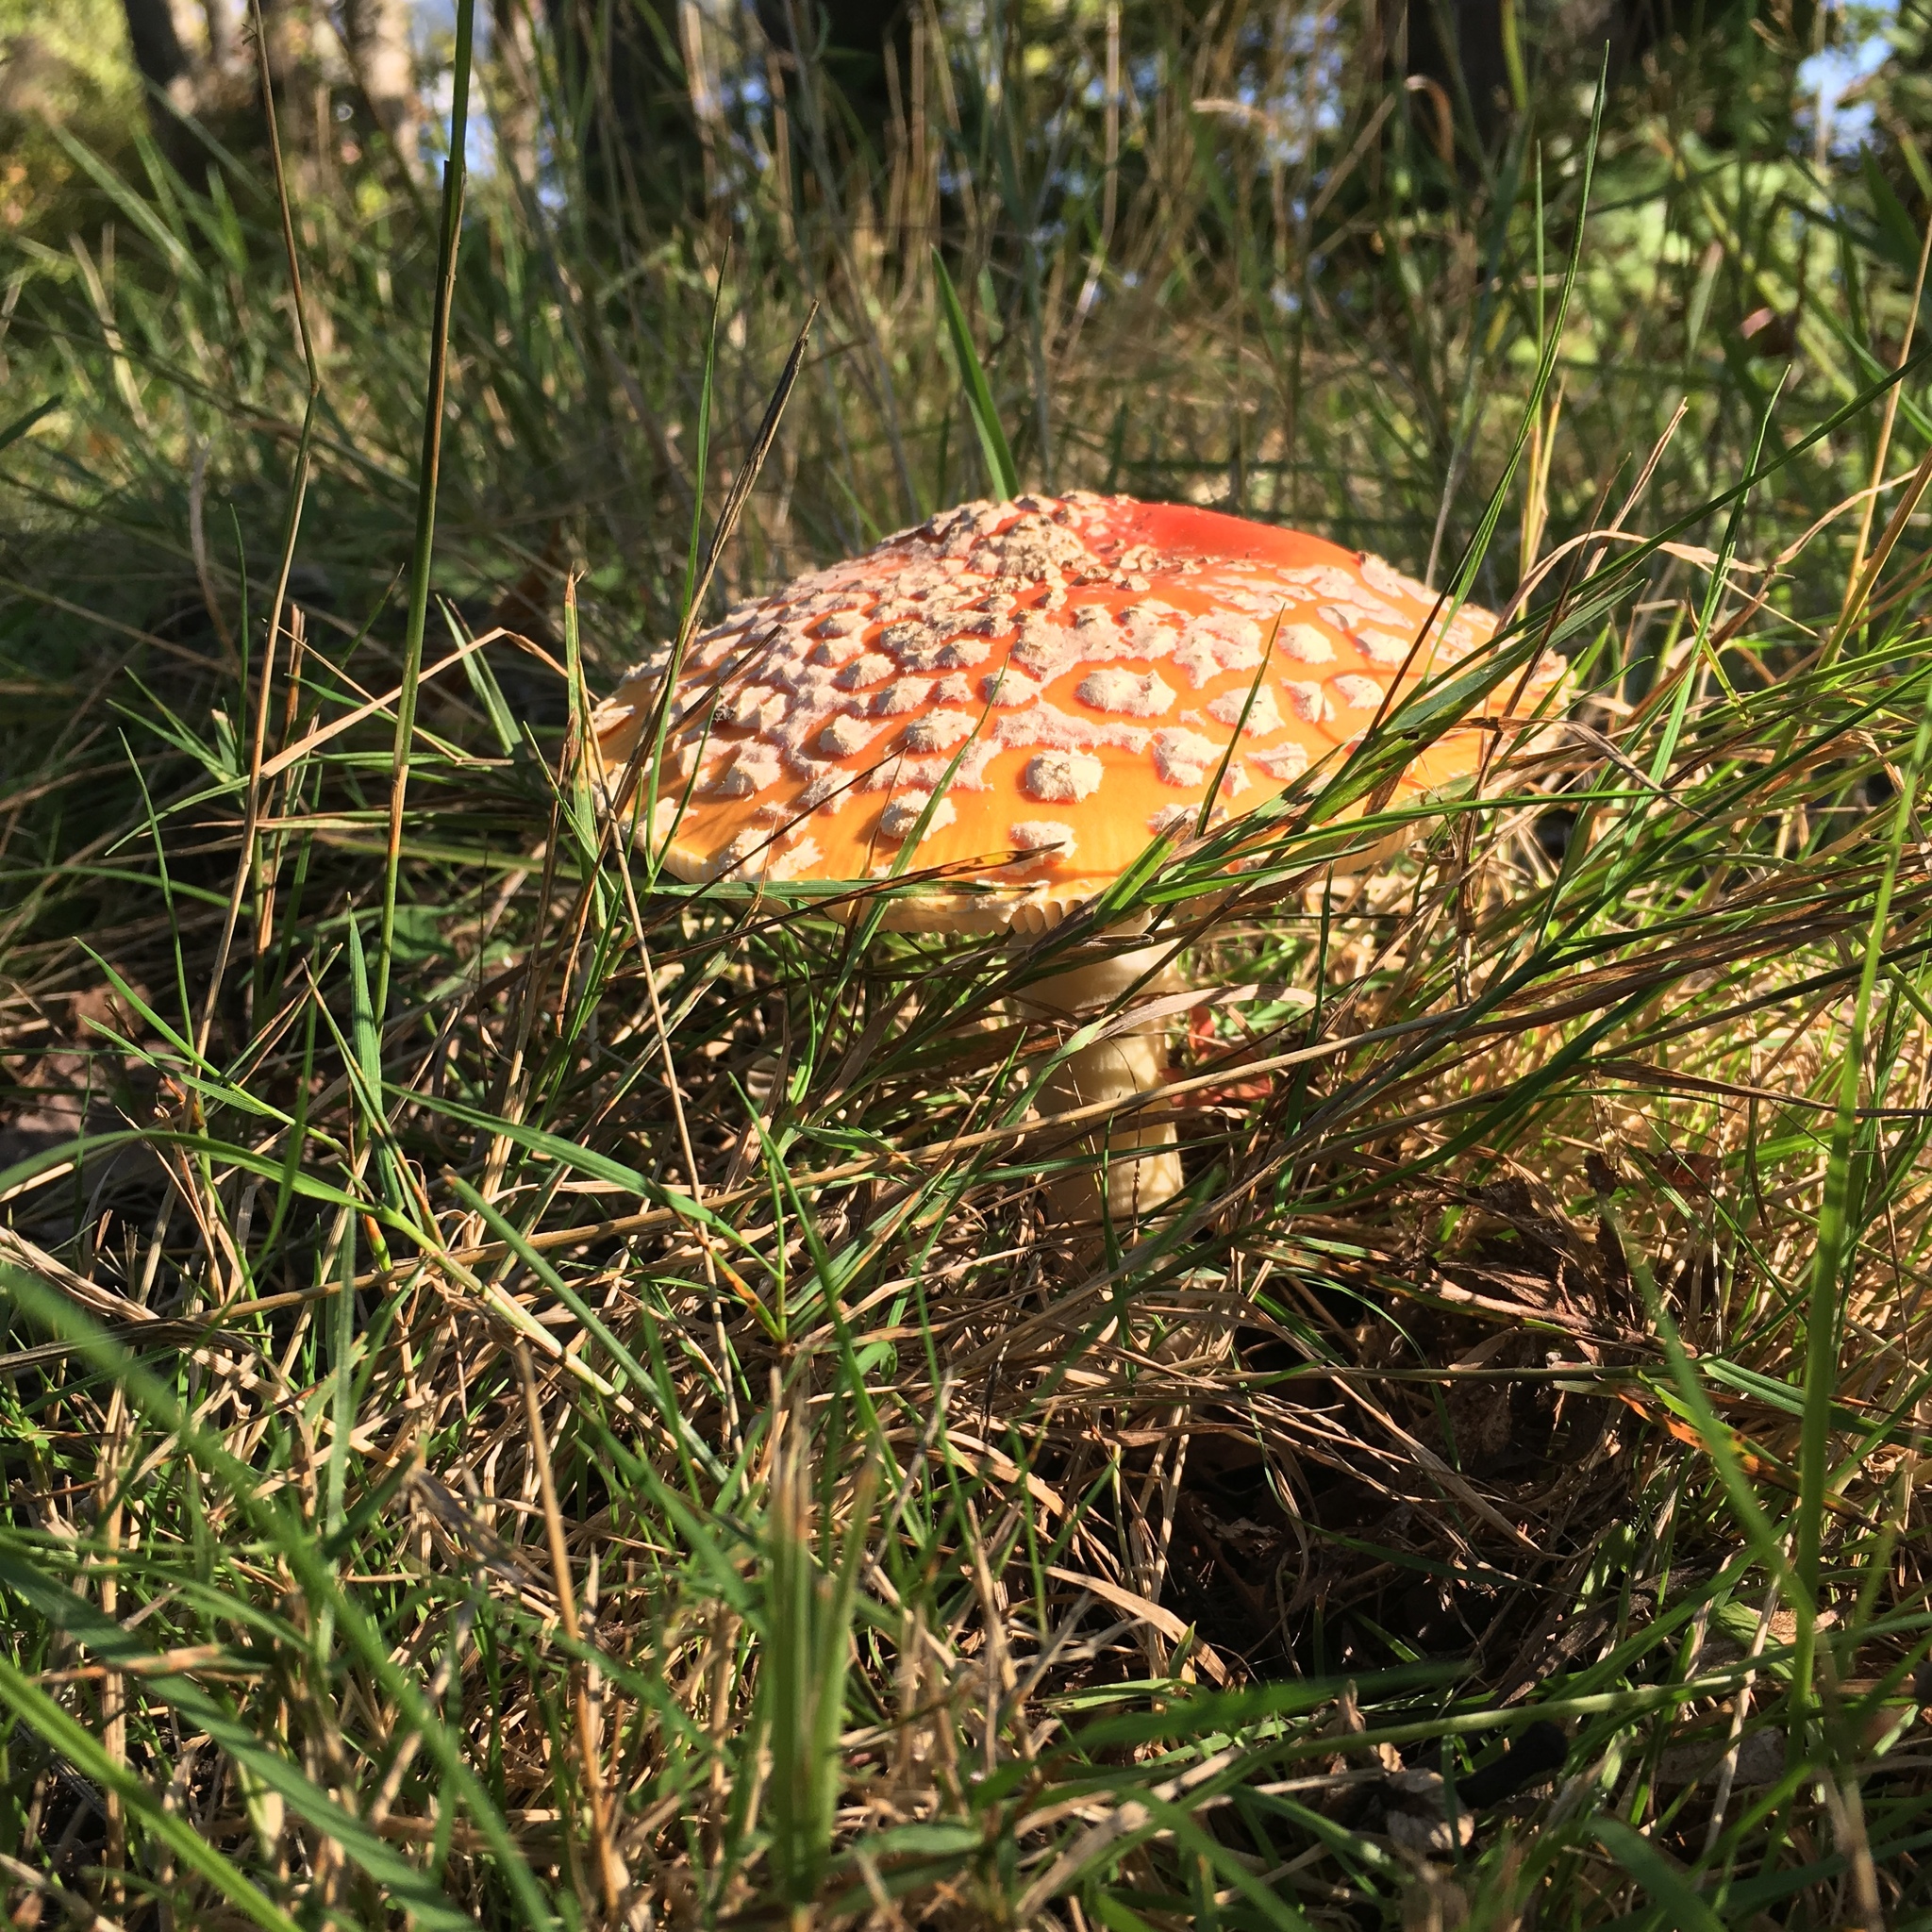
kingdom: Fungi
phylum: Basidiomycota
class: Agaricomycetes
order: Agaricales
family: Amanitaceae
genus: Amanita
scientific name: Amanita muscaria
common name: Fly agaric
